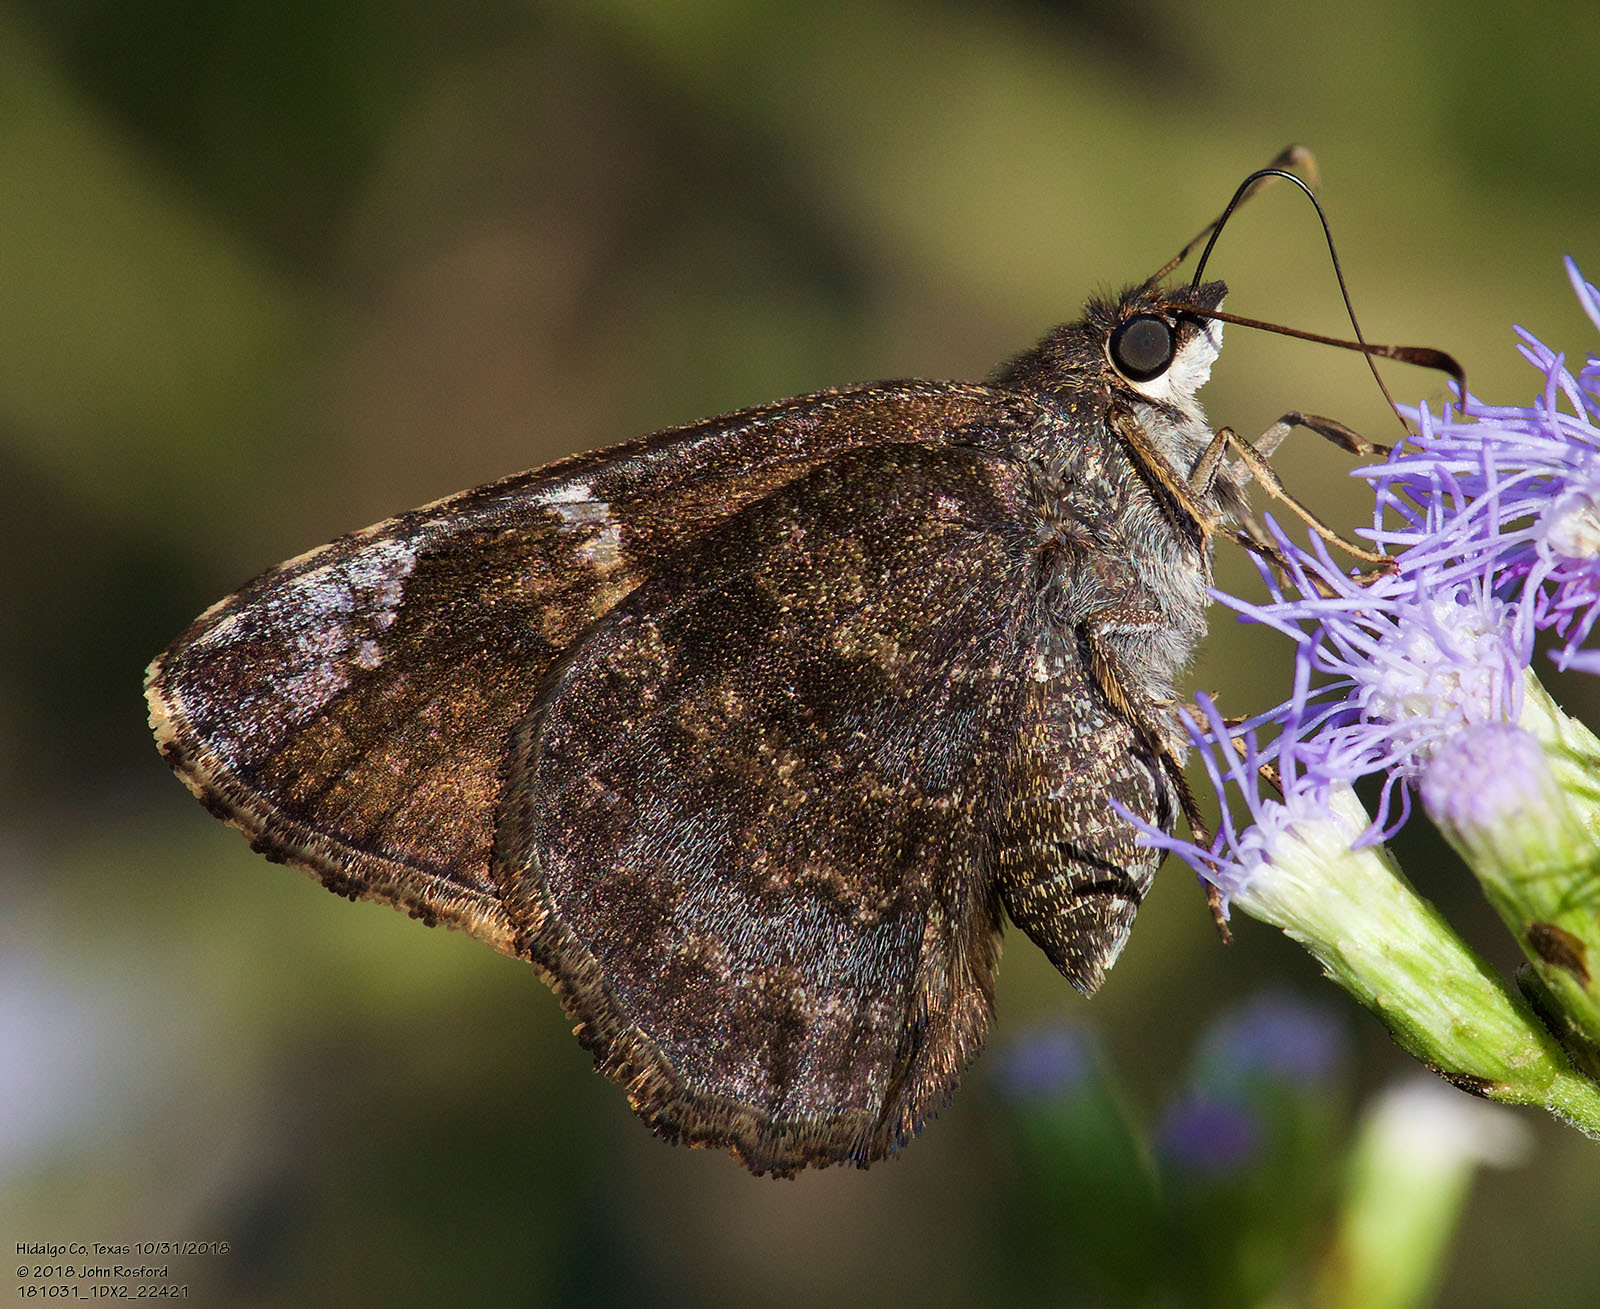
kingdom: Animalia
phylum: Arthropoda
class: Insecta
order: Lepidoptera
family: Hesperiidae
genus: Caicella
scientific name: Caicella calchas
